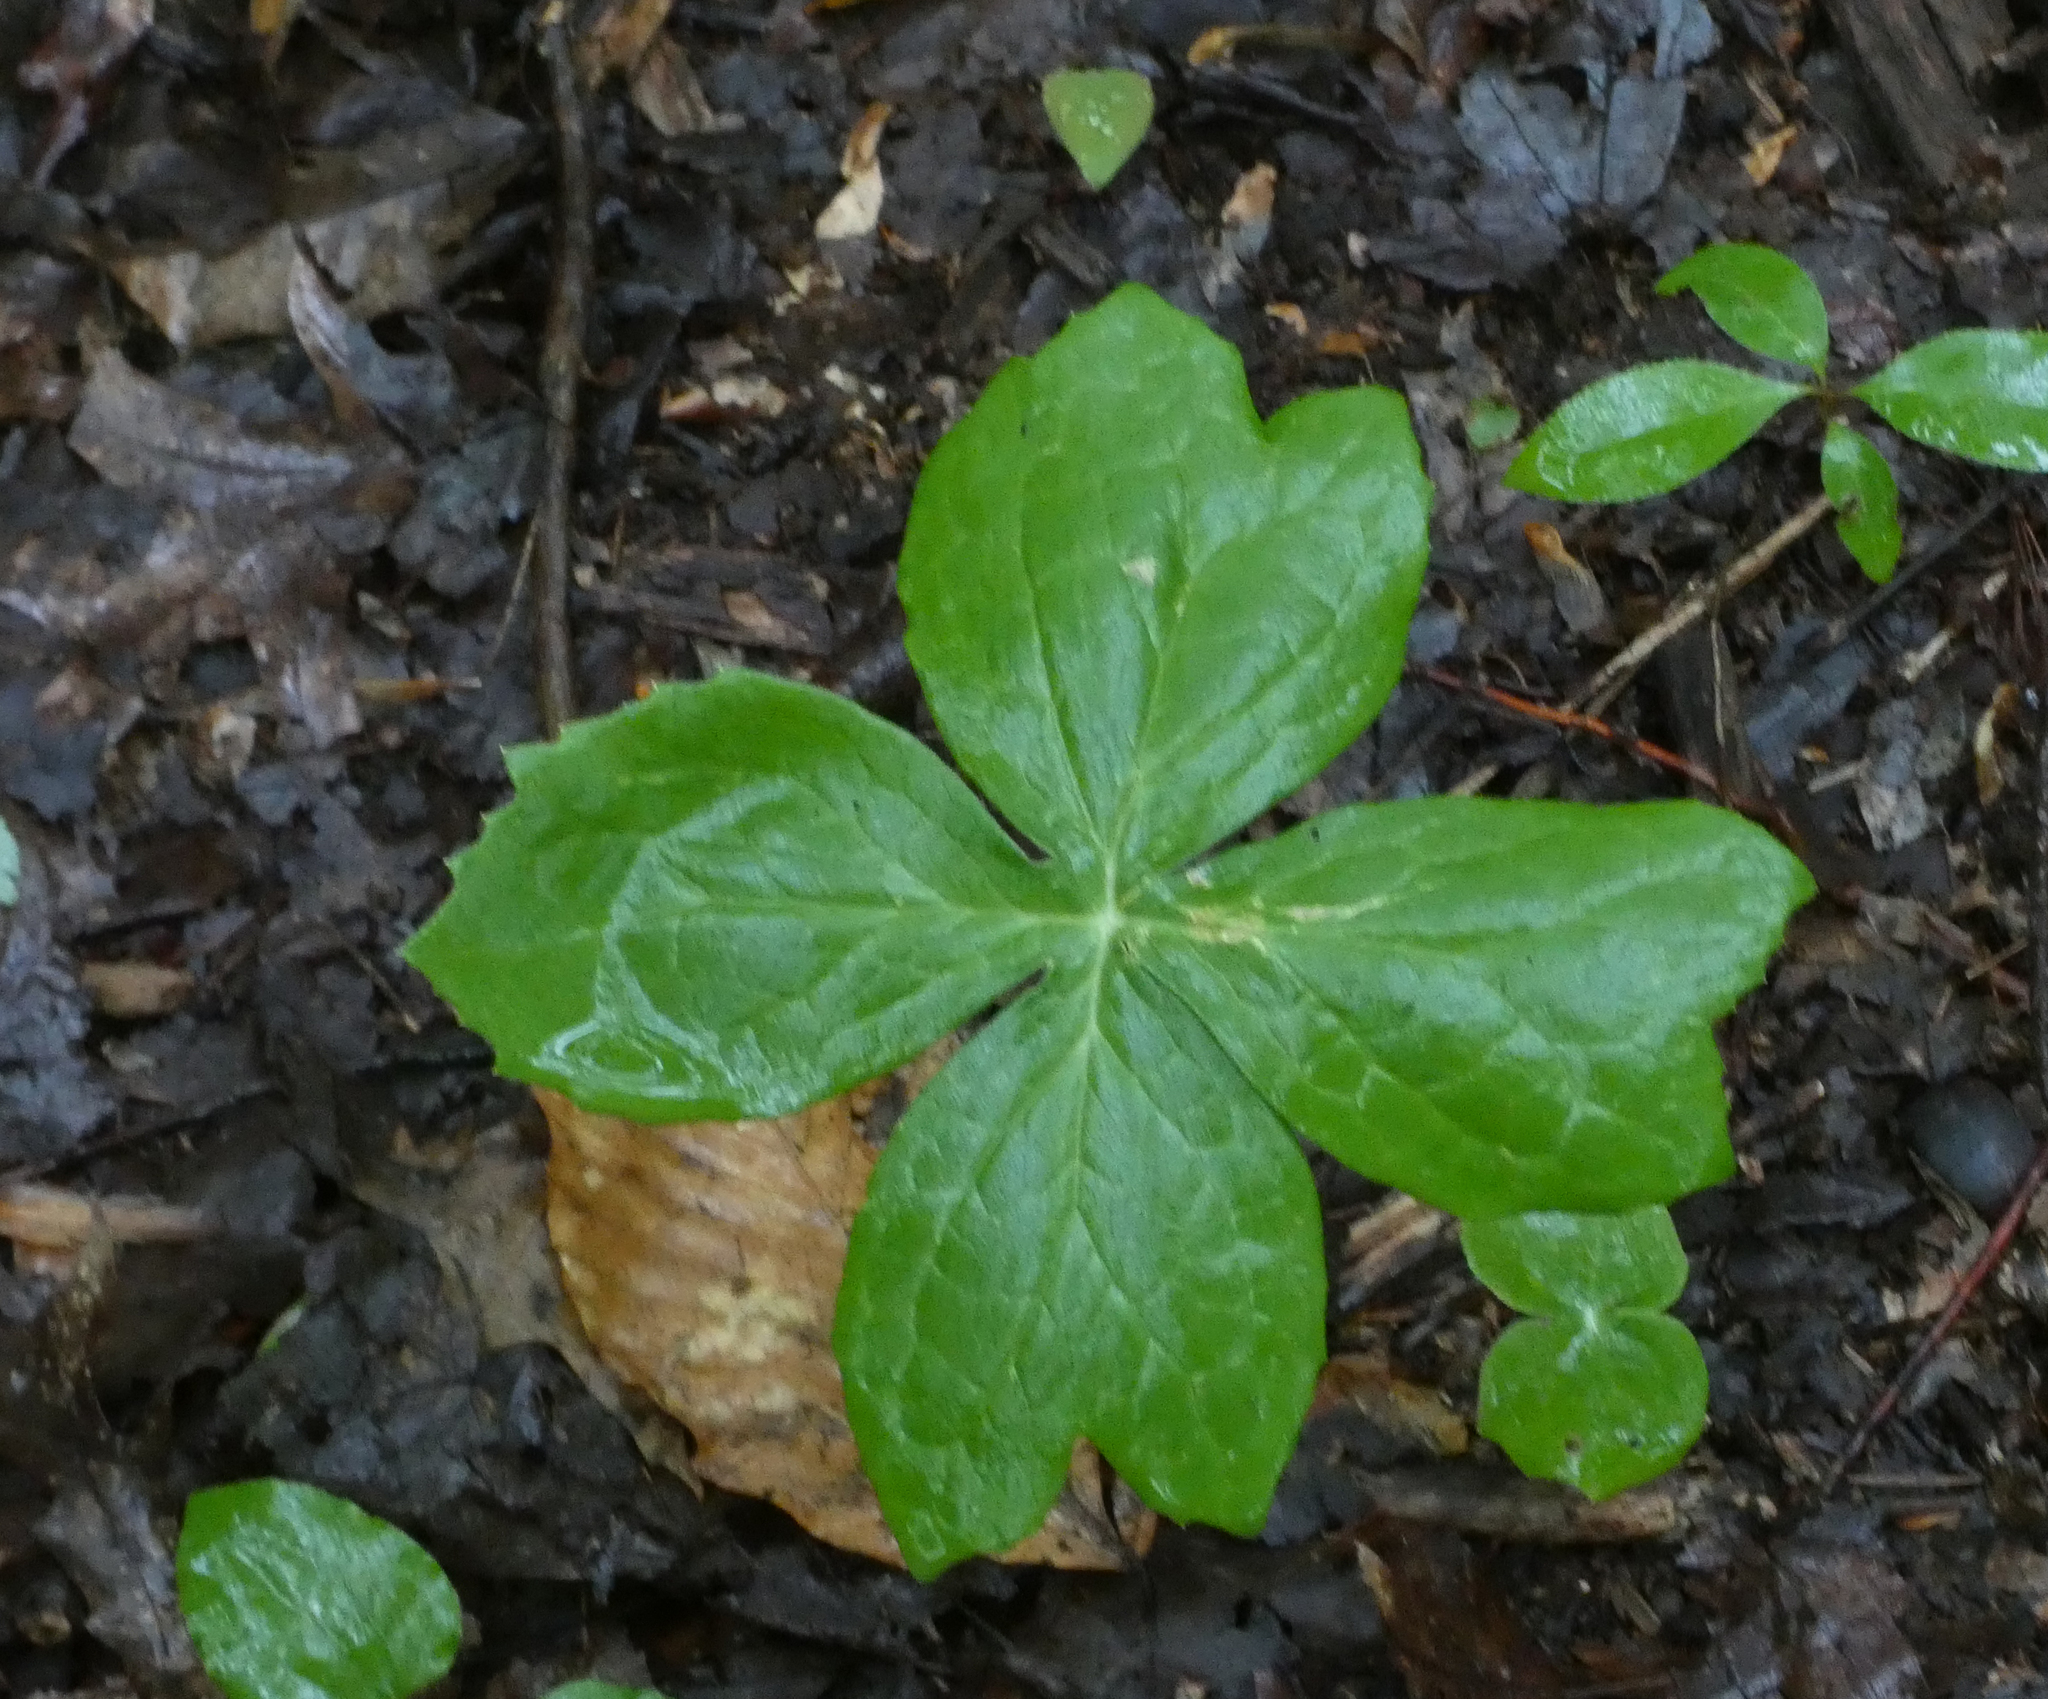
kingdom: Plantae
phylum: Tracheophyta
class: Magnoliopsida
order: Ranunculales
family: Berberidaceae
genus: Podophyllum
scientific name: Podophyllum peltatum
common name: Wild mandrake
